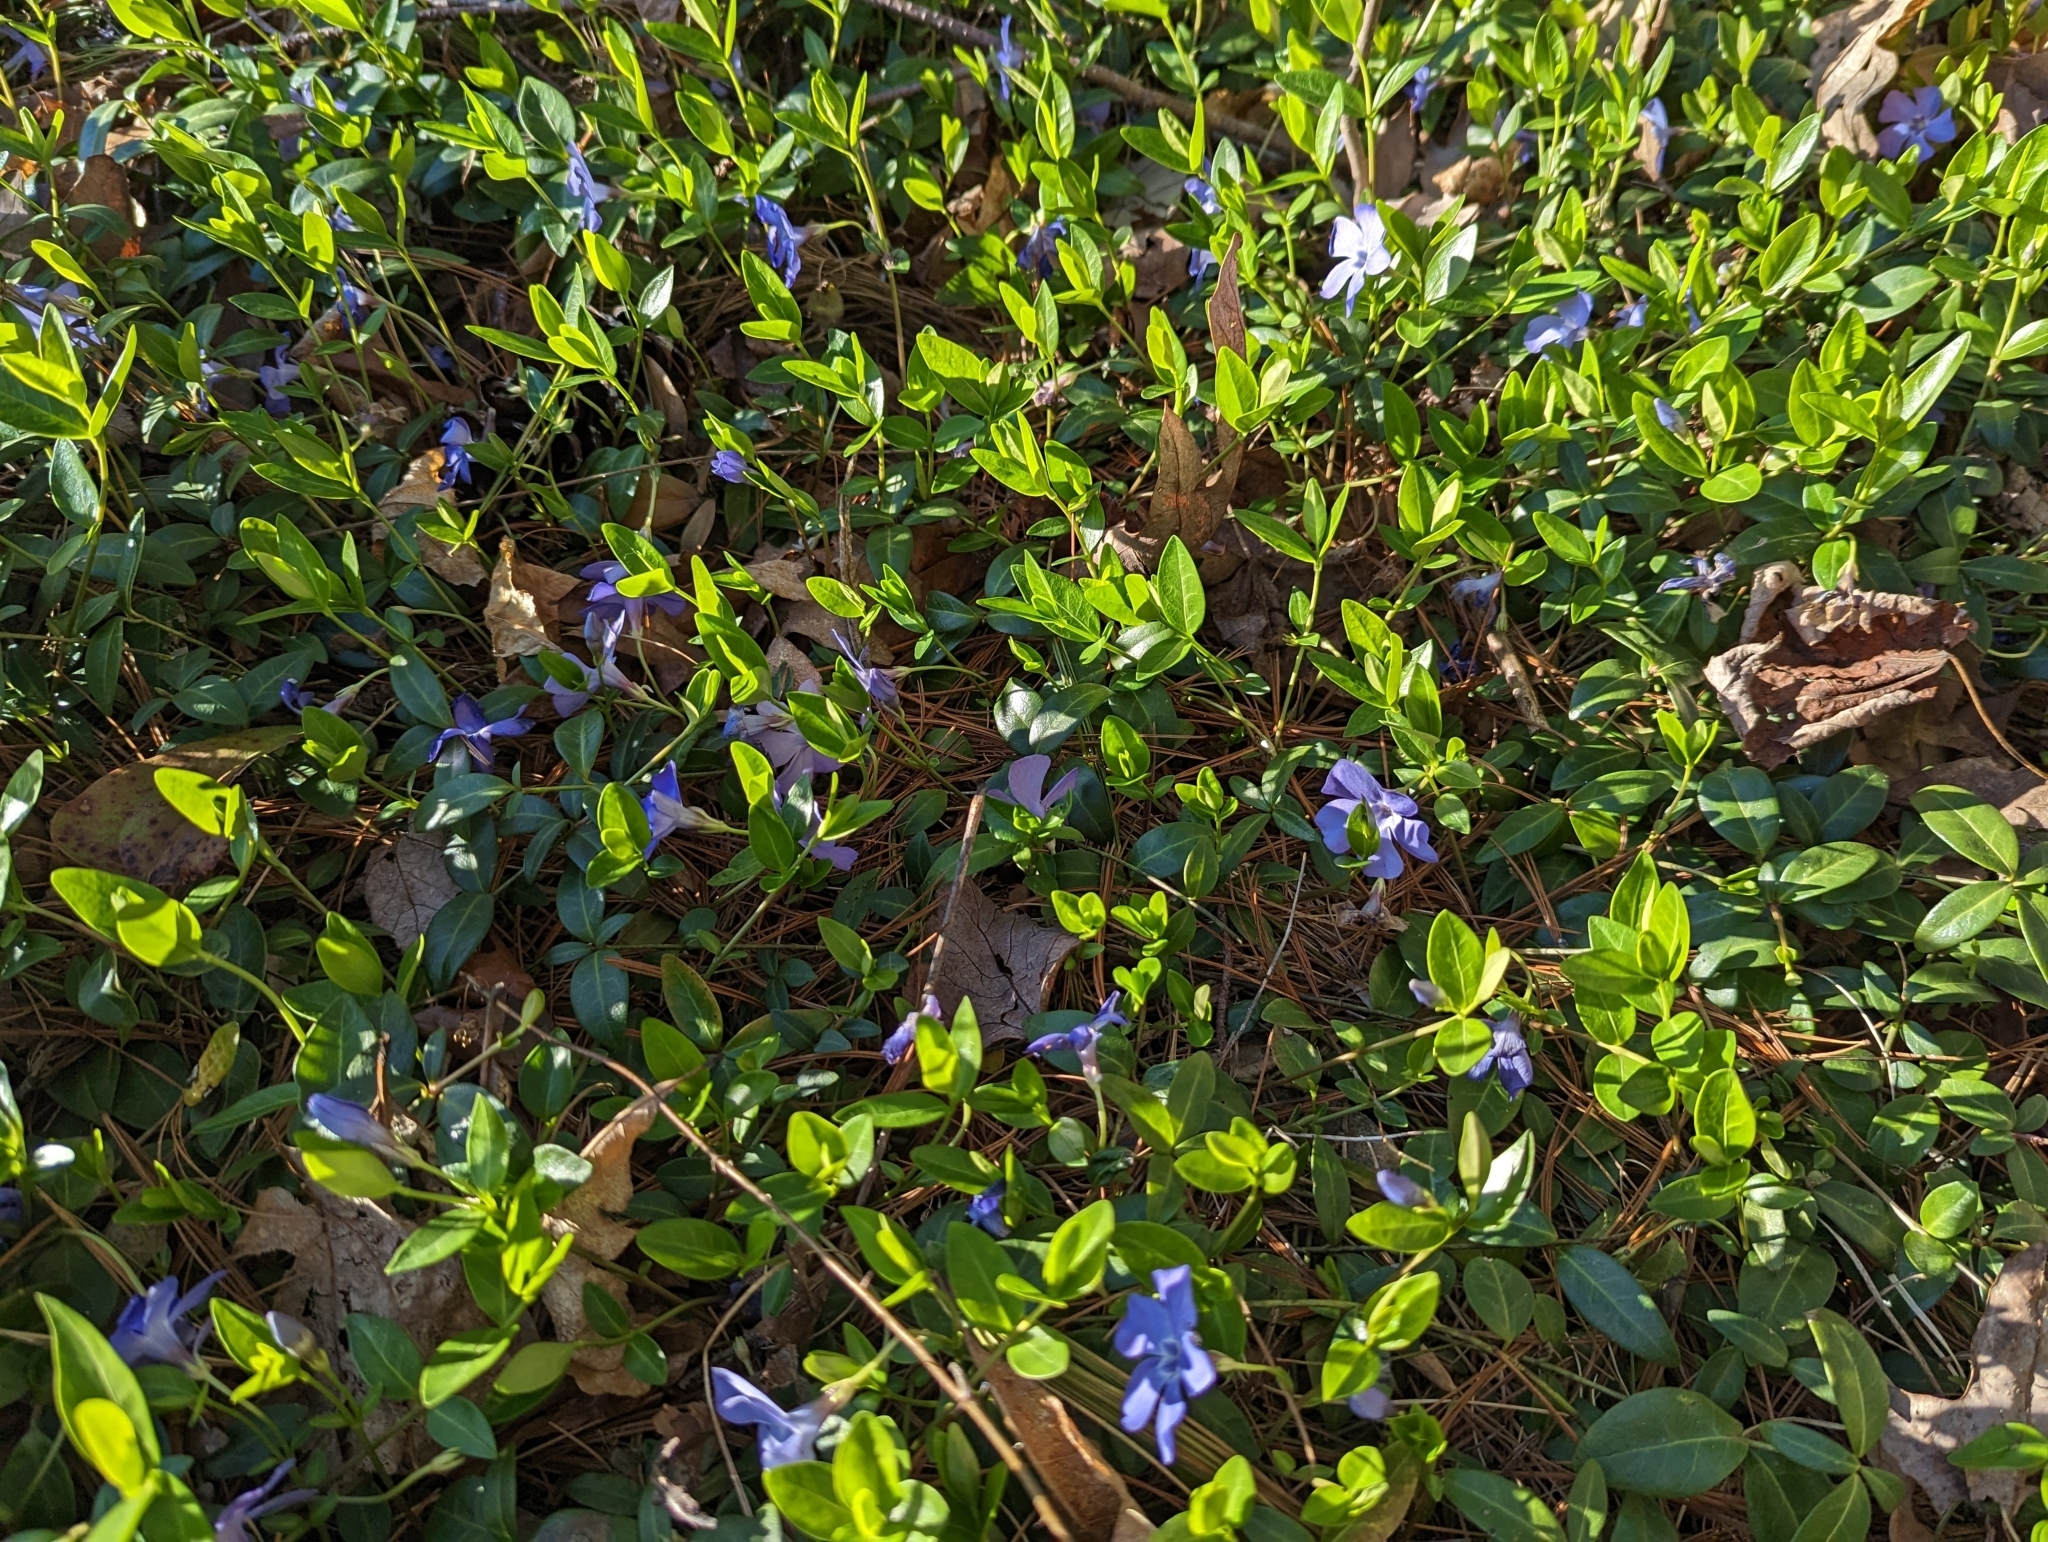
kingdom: Plantae
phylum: Tracheophyta
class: Magnoliopsida
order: Gentianales
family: Apocynaceae
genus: Vinca
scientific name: Vinca minor
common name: Lesser periwinkle
